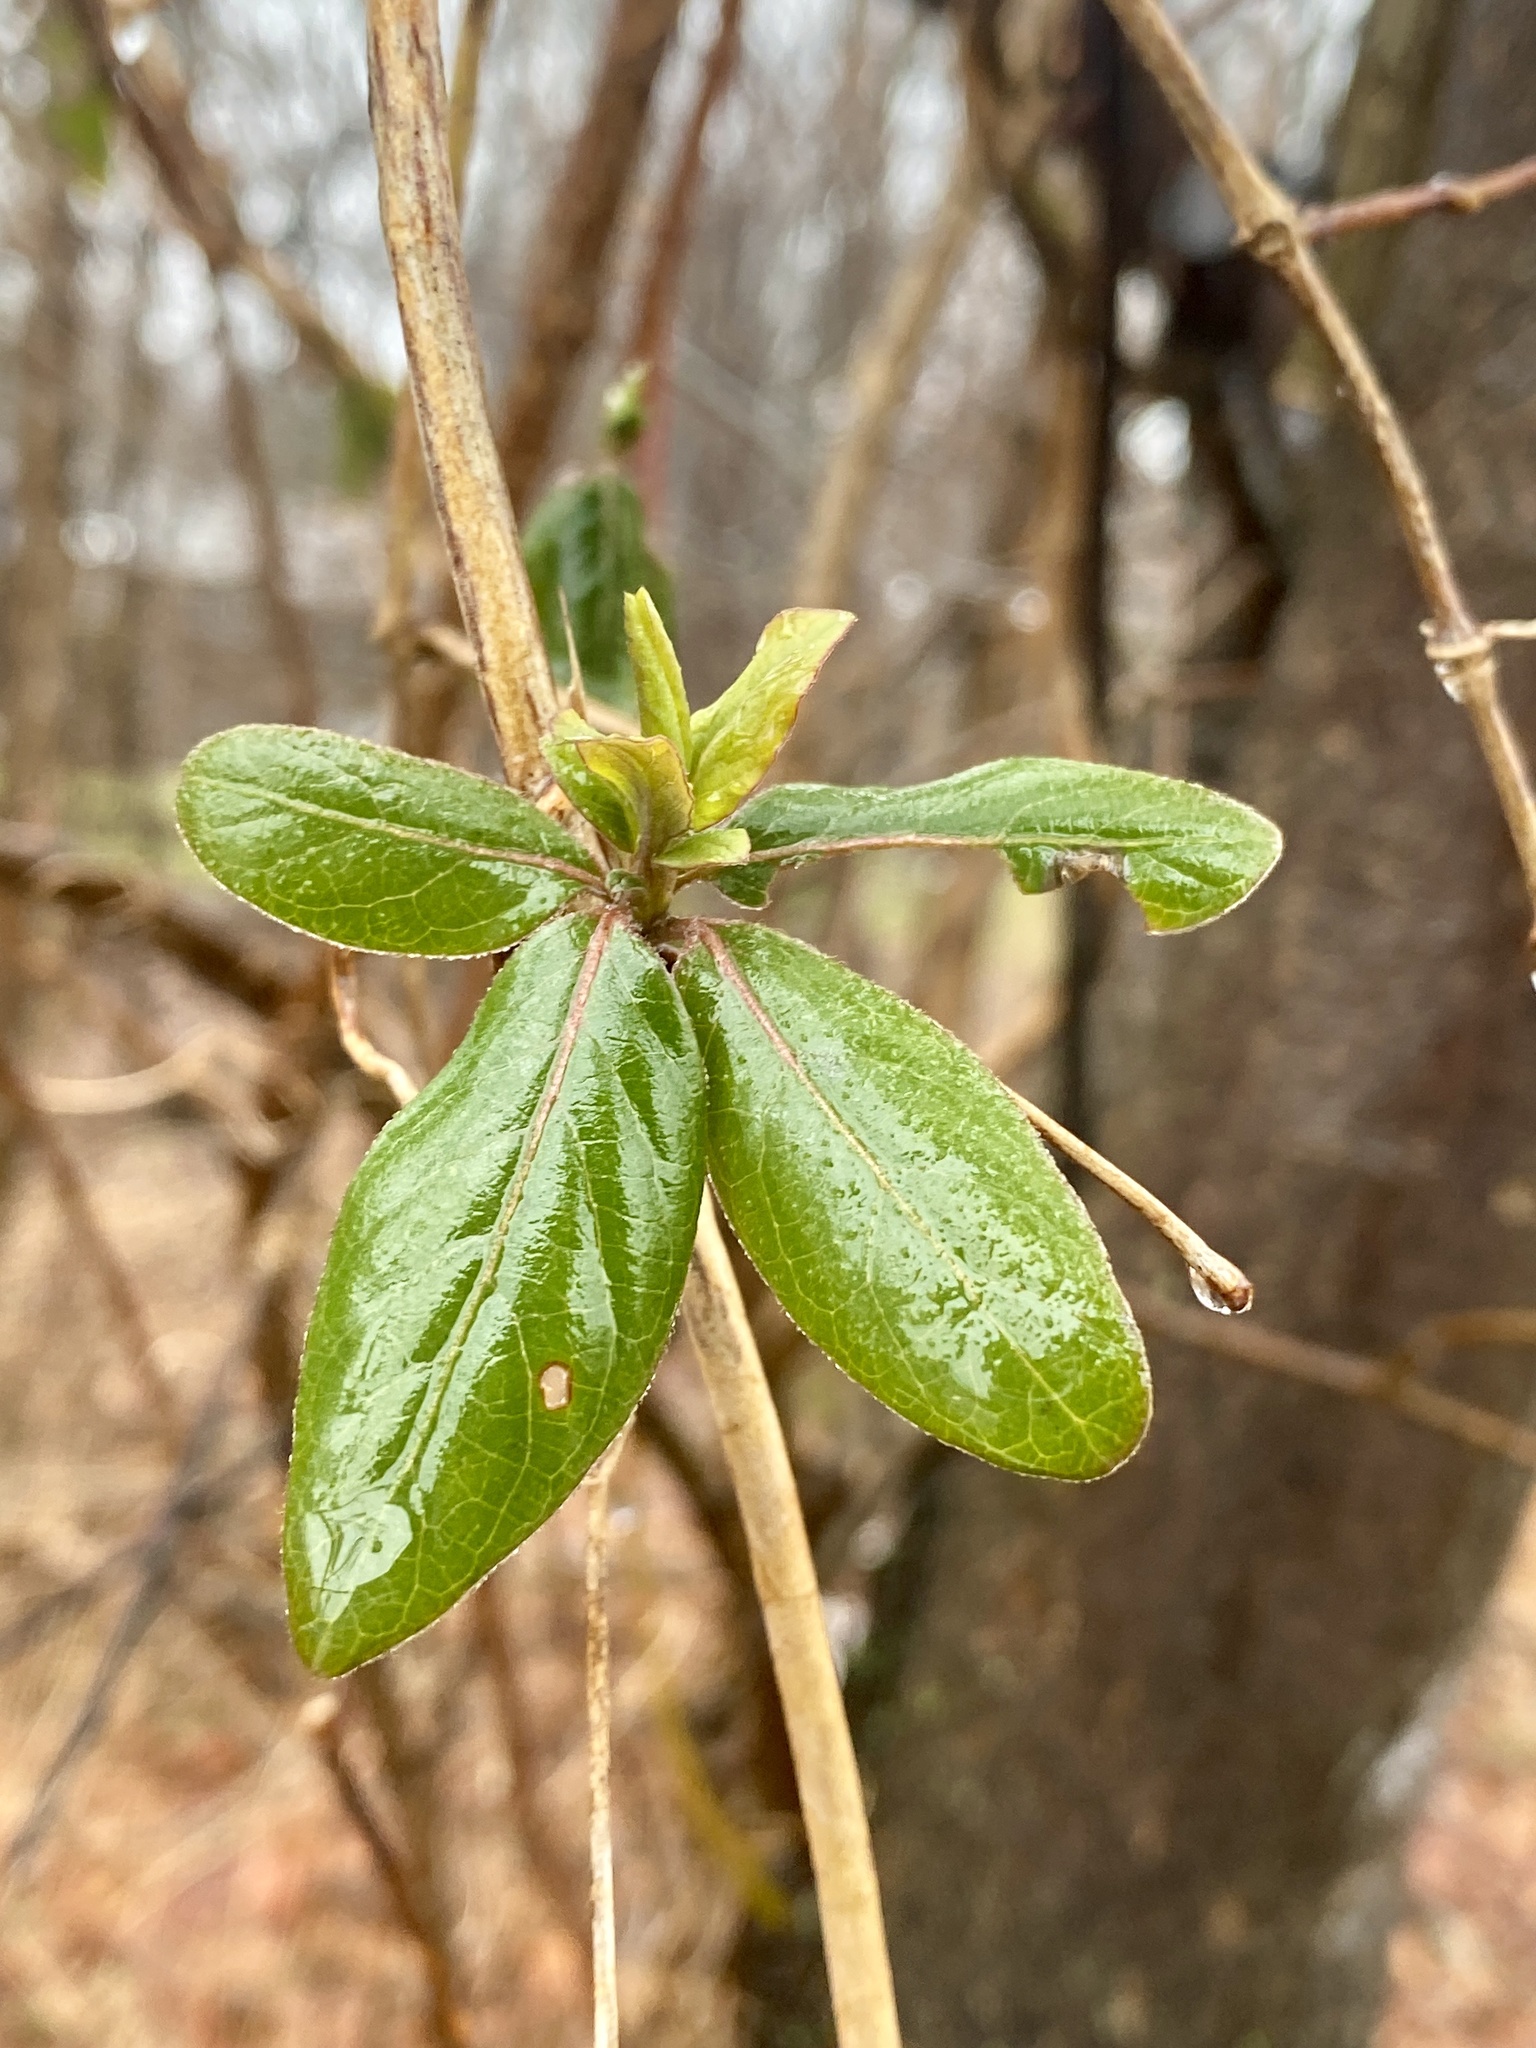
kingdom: Plantae
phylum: Tracheophyta
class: Magnoliopsida
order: Dipsacales
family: Caprifoliaceae
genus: Lonicera
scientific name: Lonicera japonica
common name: Japanese honeysuckle
